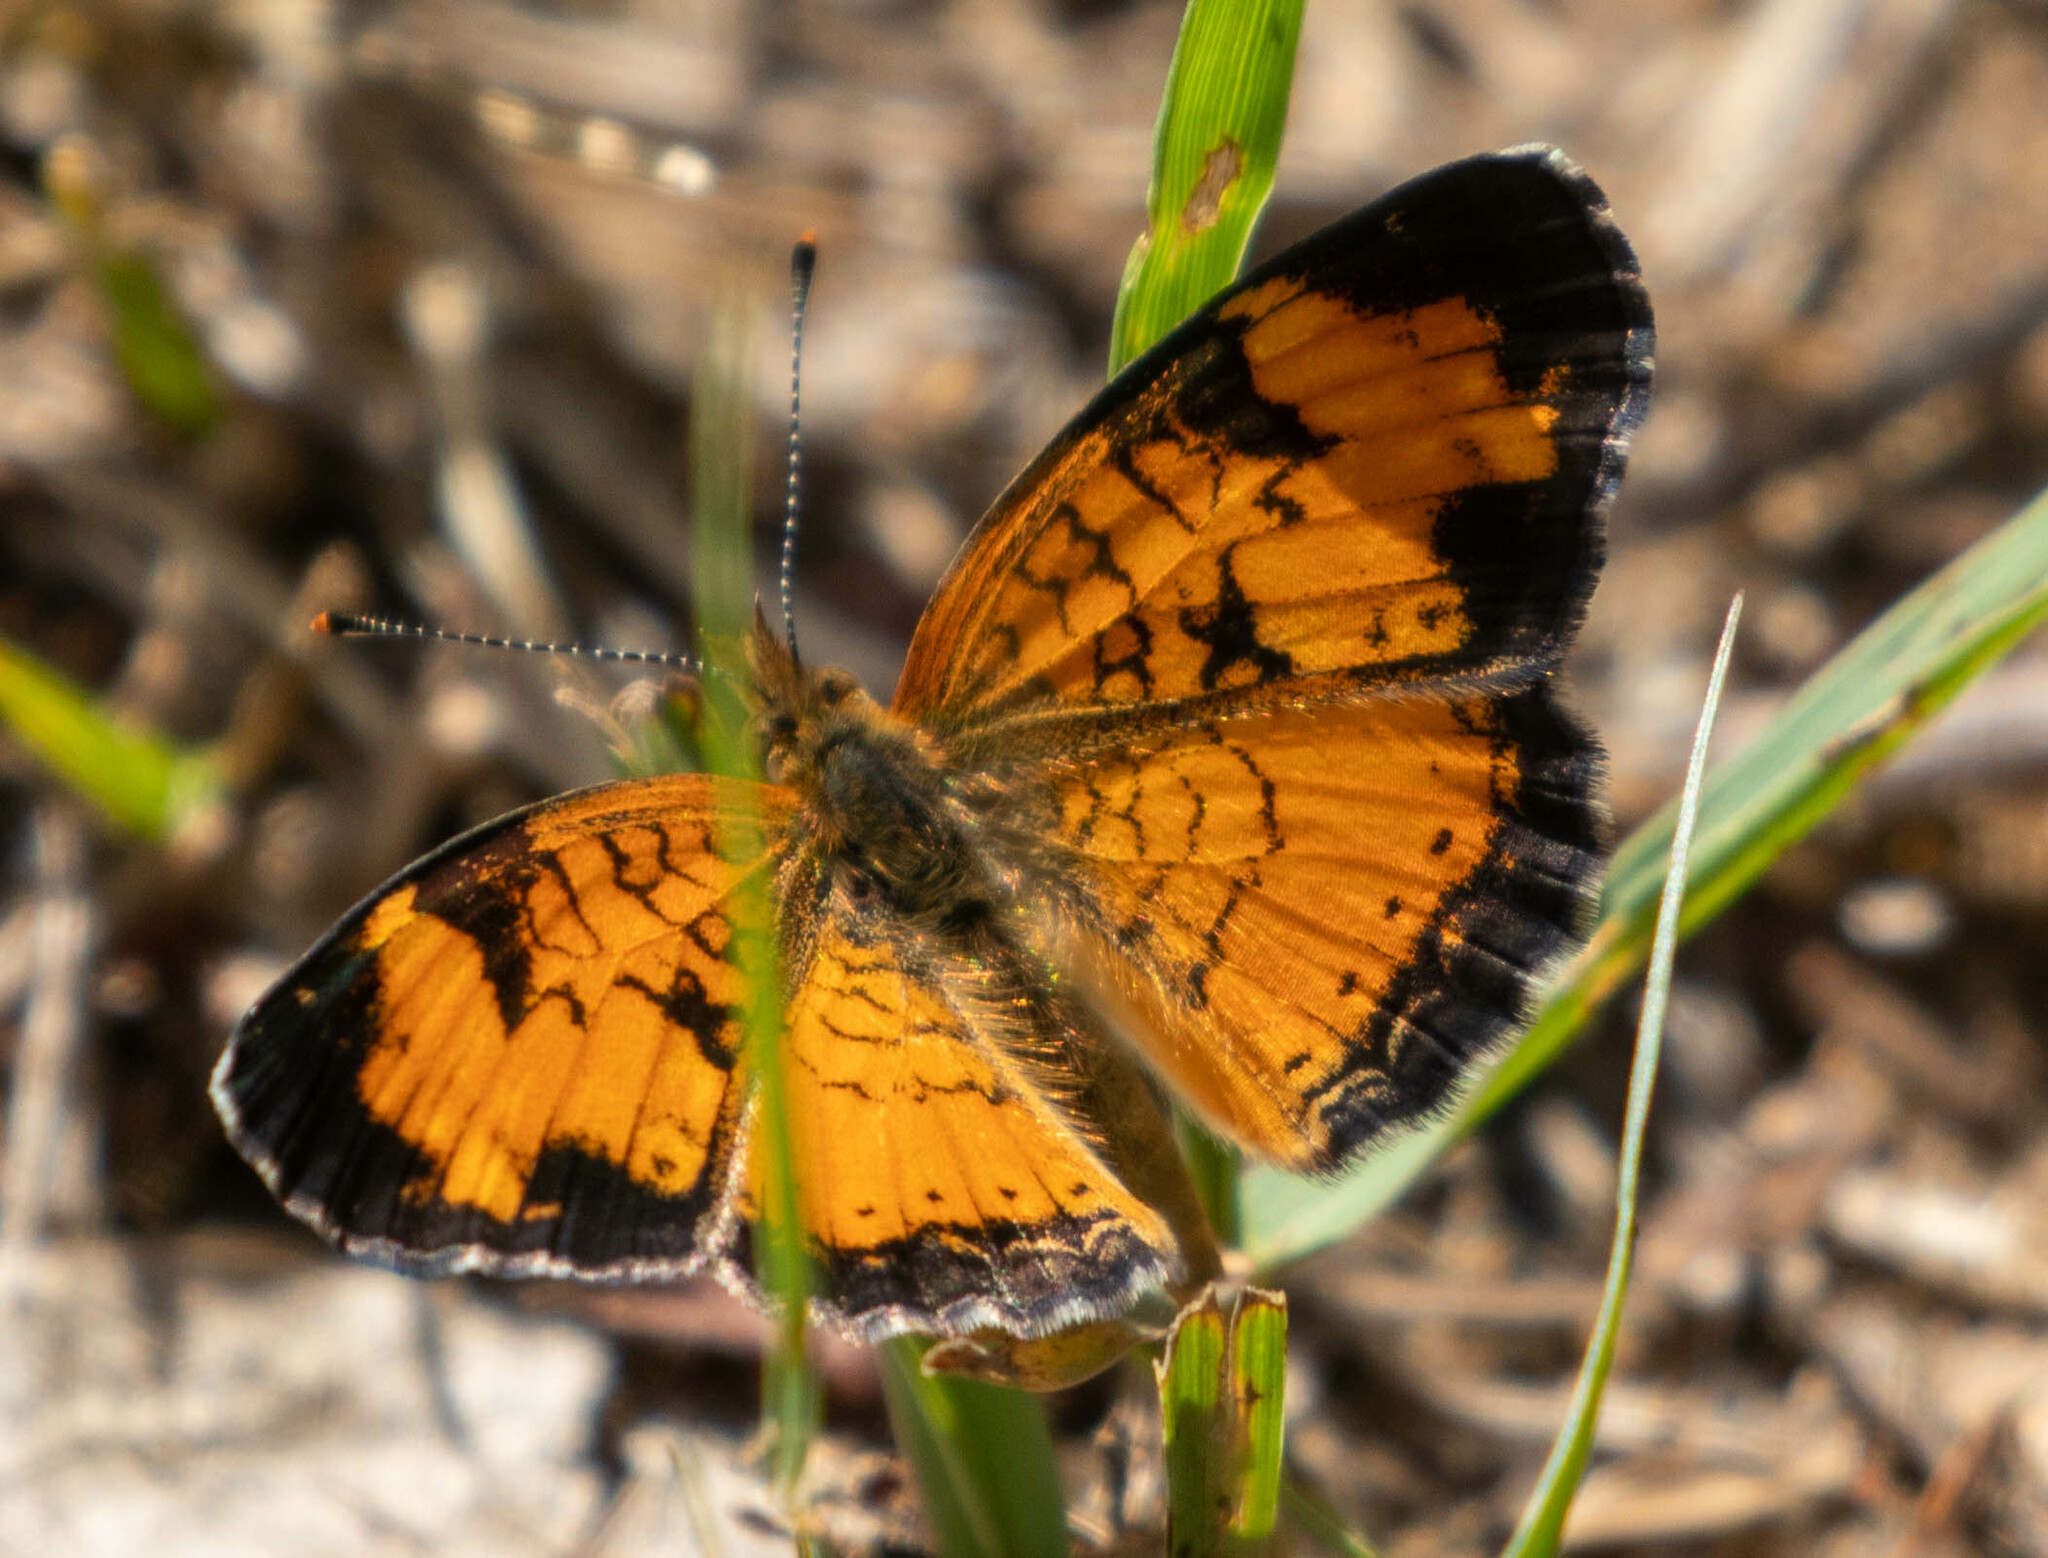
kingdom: Animalia
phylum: Arthropoda
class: Insecta
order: Lepidoptera
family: Nymphalidae
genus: Phyciodes
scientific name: Phyciodes tharos
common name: Pearl crescent
